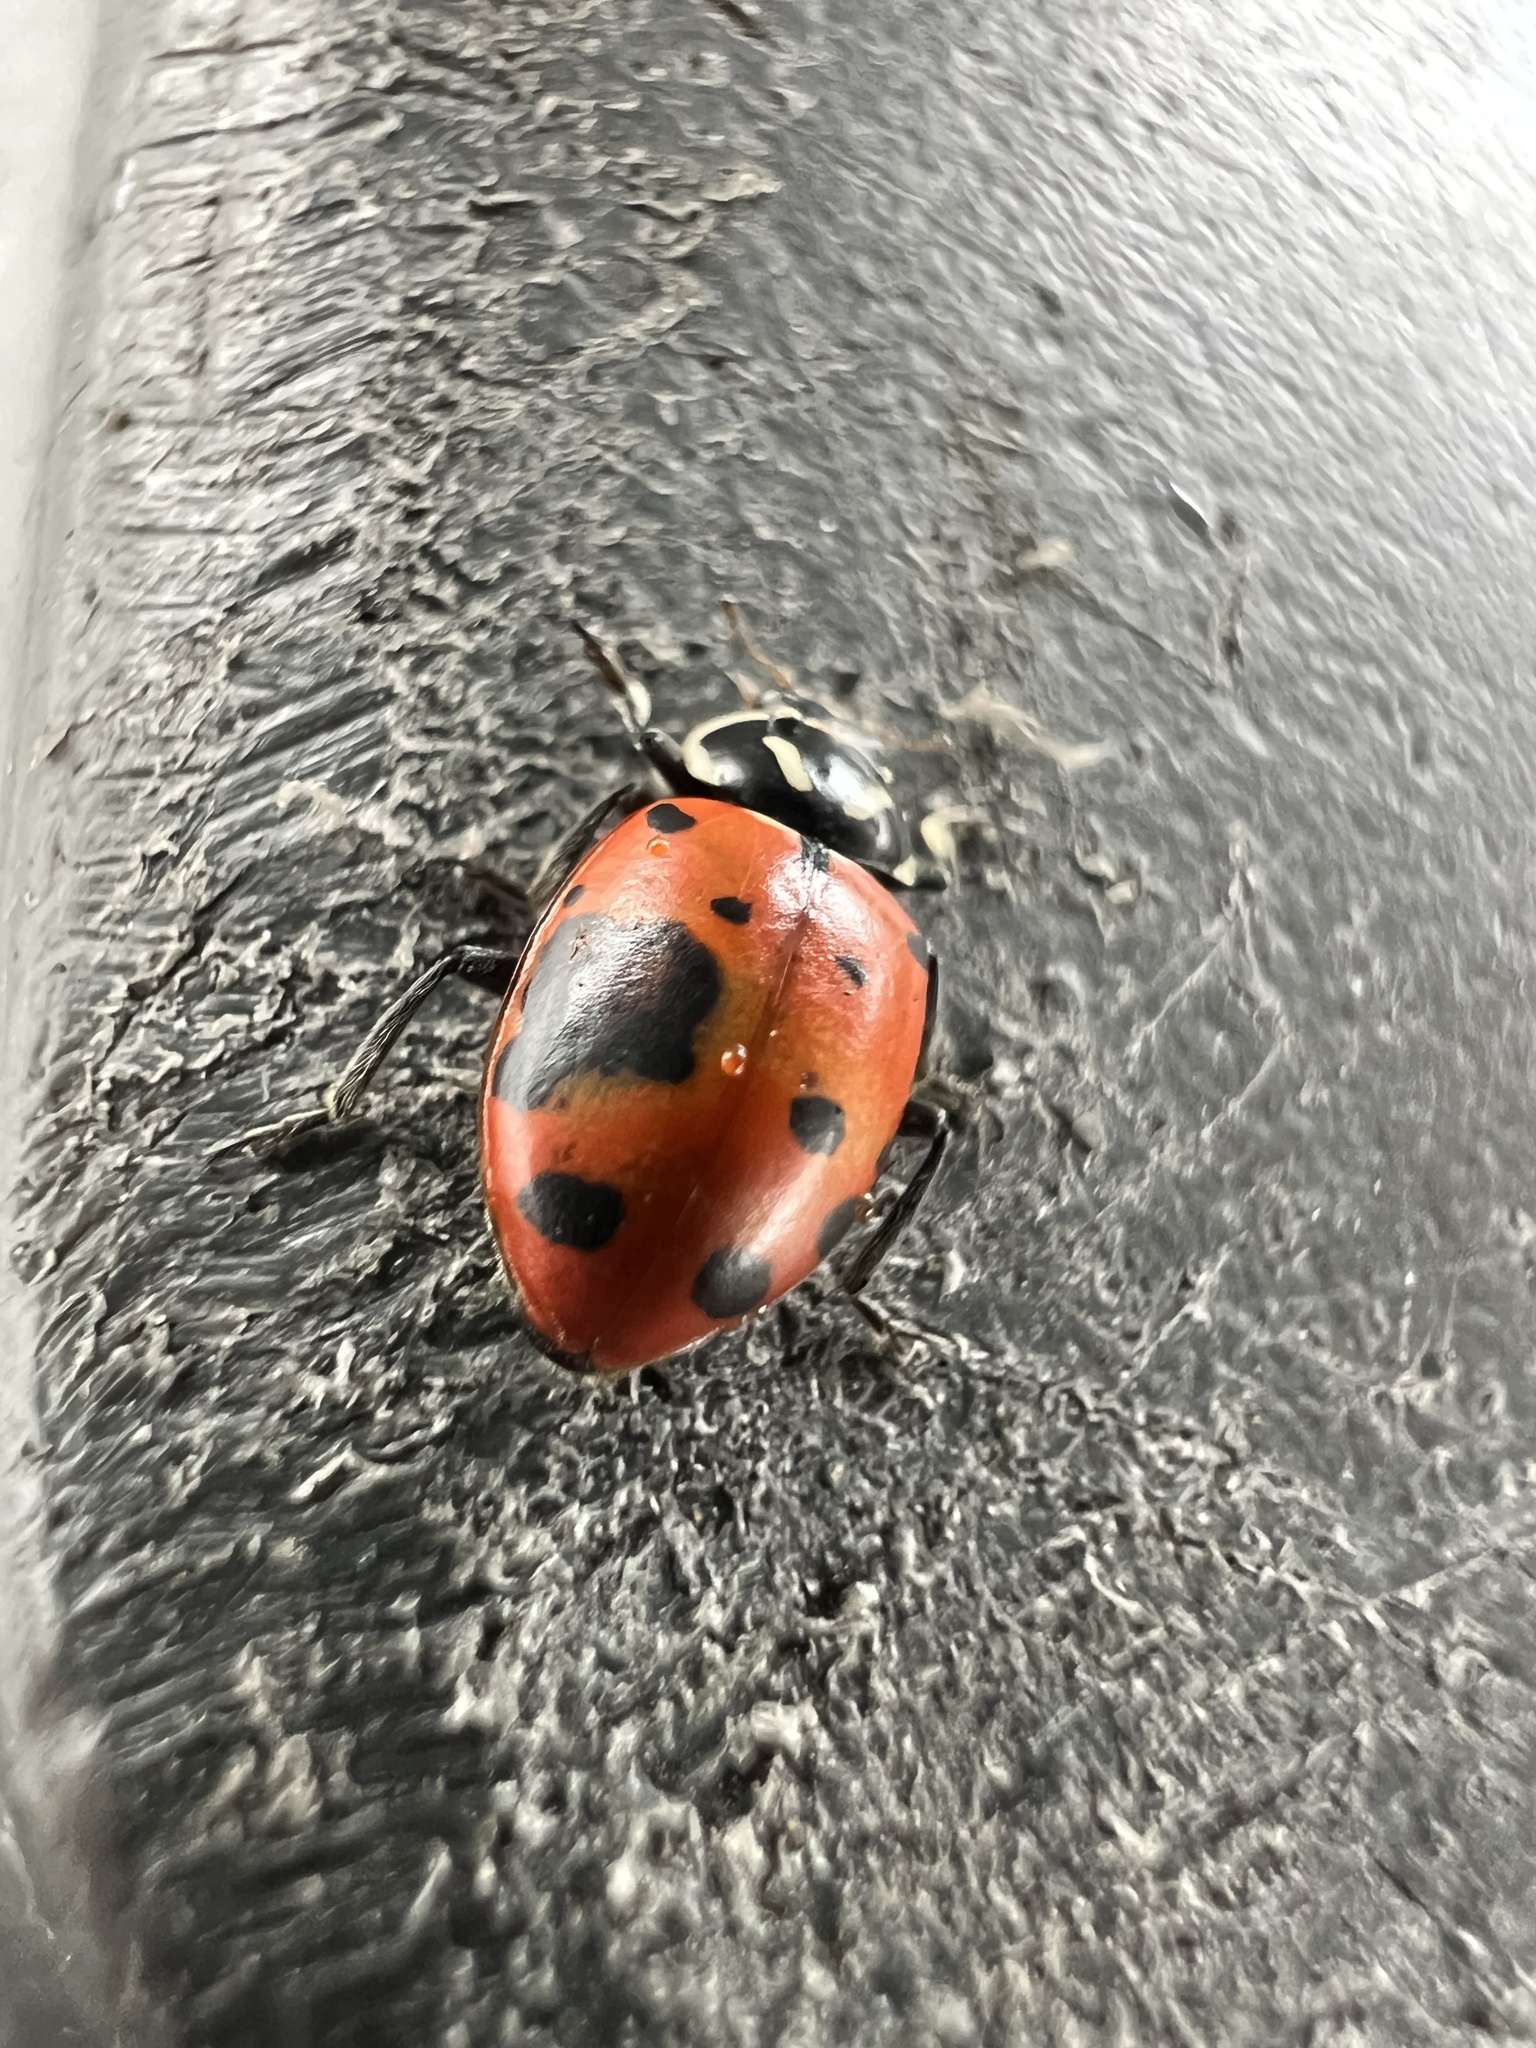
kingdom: Animalia
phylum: Arthropoda
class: Insecta
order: Coleoptera
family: Coccinellidae
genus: Hippodamia
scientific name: Hippodamia convergens
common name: Convergent lady beetle
